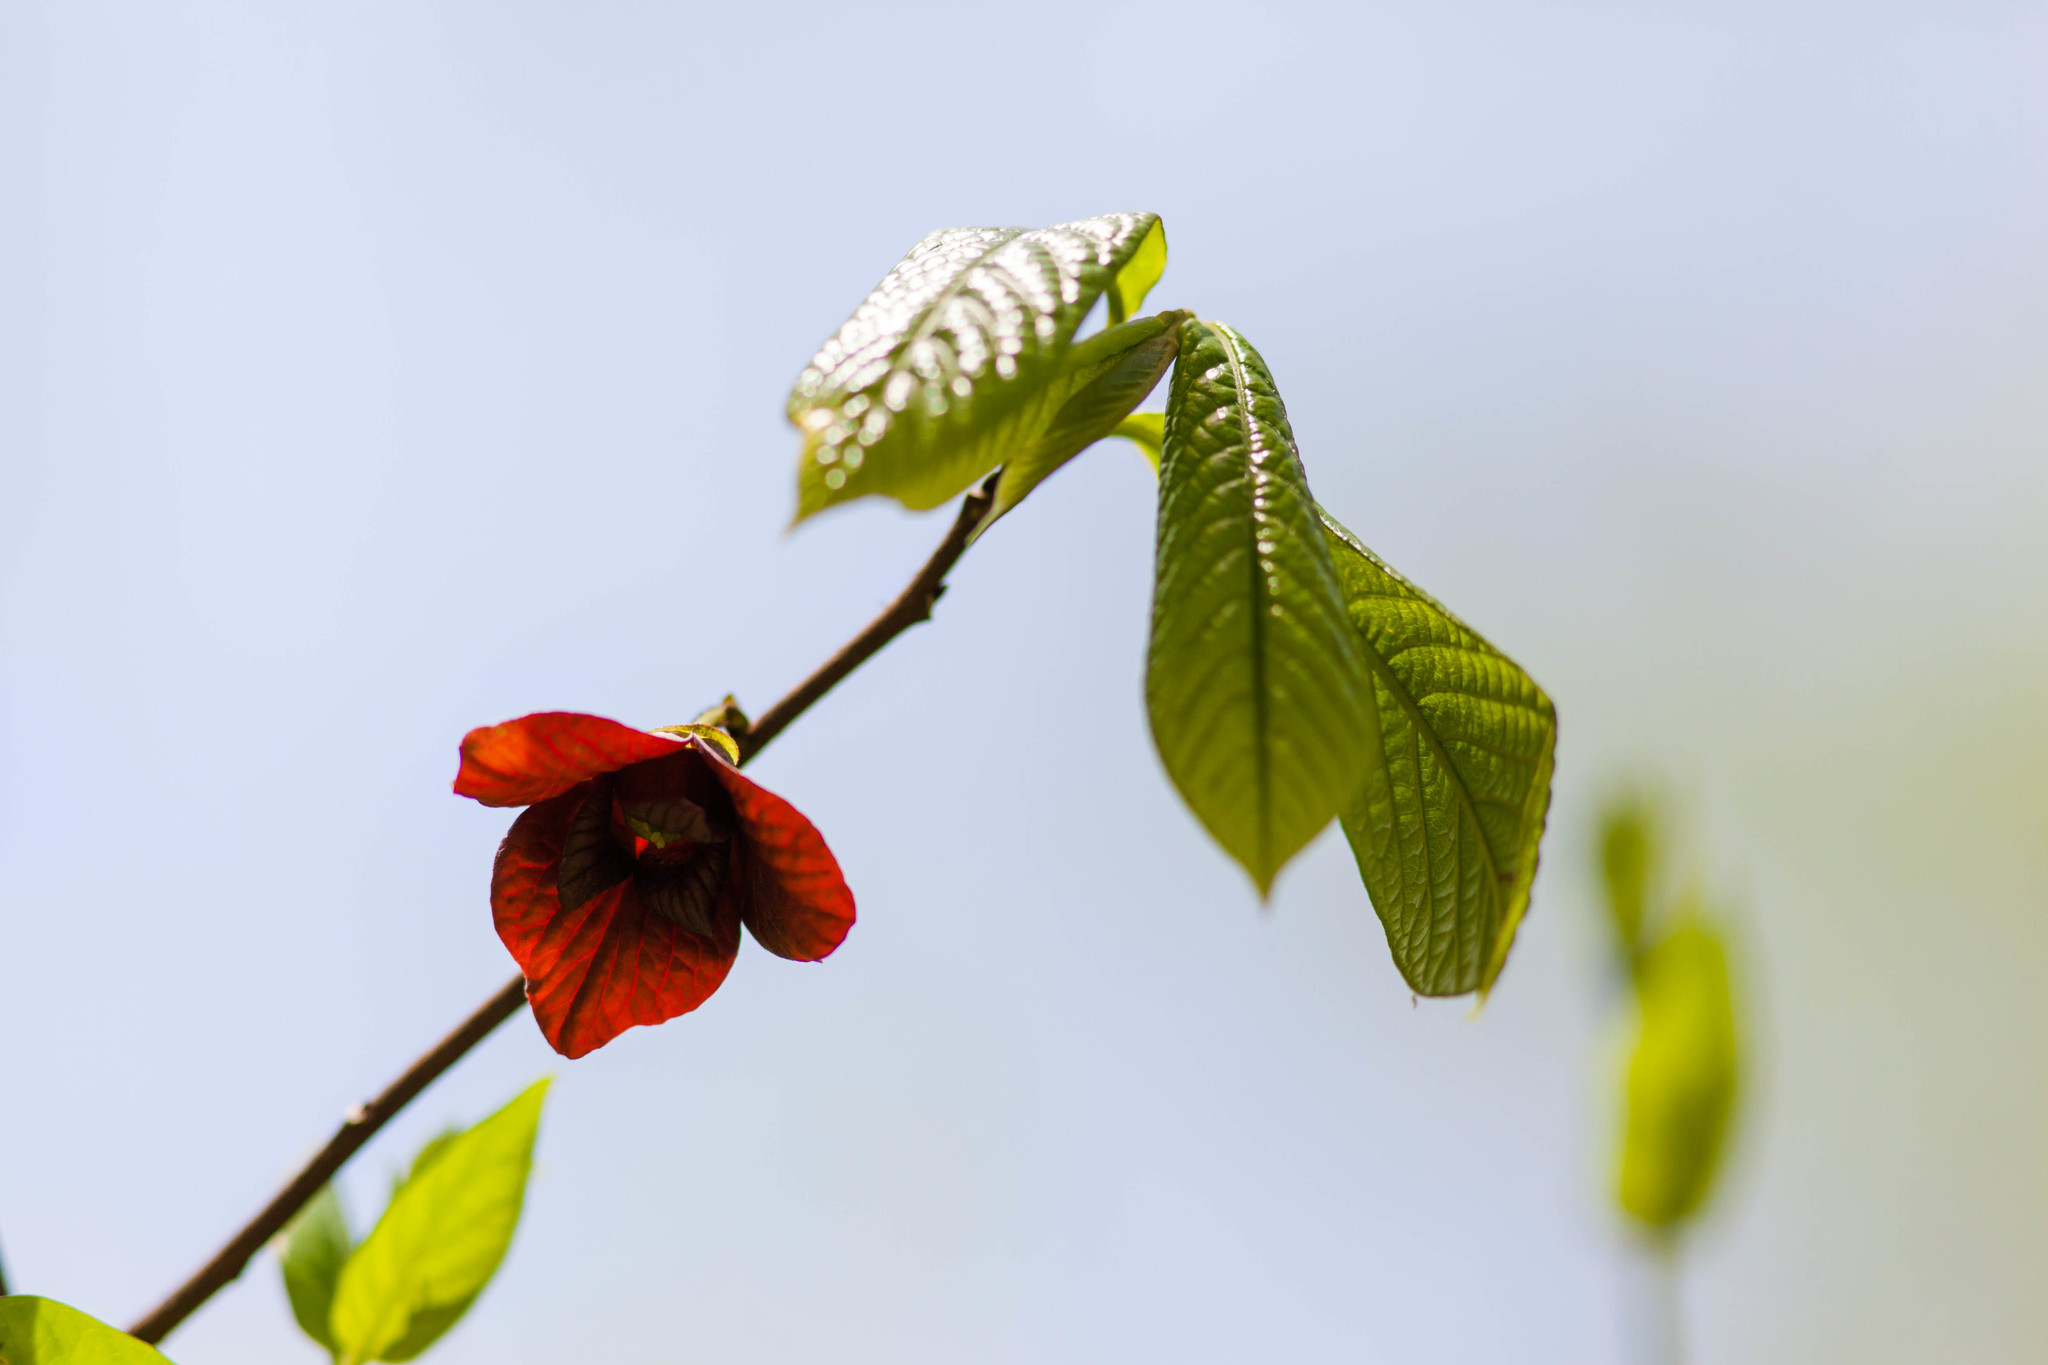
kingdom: Plantae
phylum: Tracheophyta
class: Magnoliopsida
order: Magnoliales
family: Annonaceae
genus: Asimina
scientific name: Asimina triloba
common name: Dog-banana
